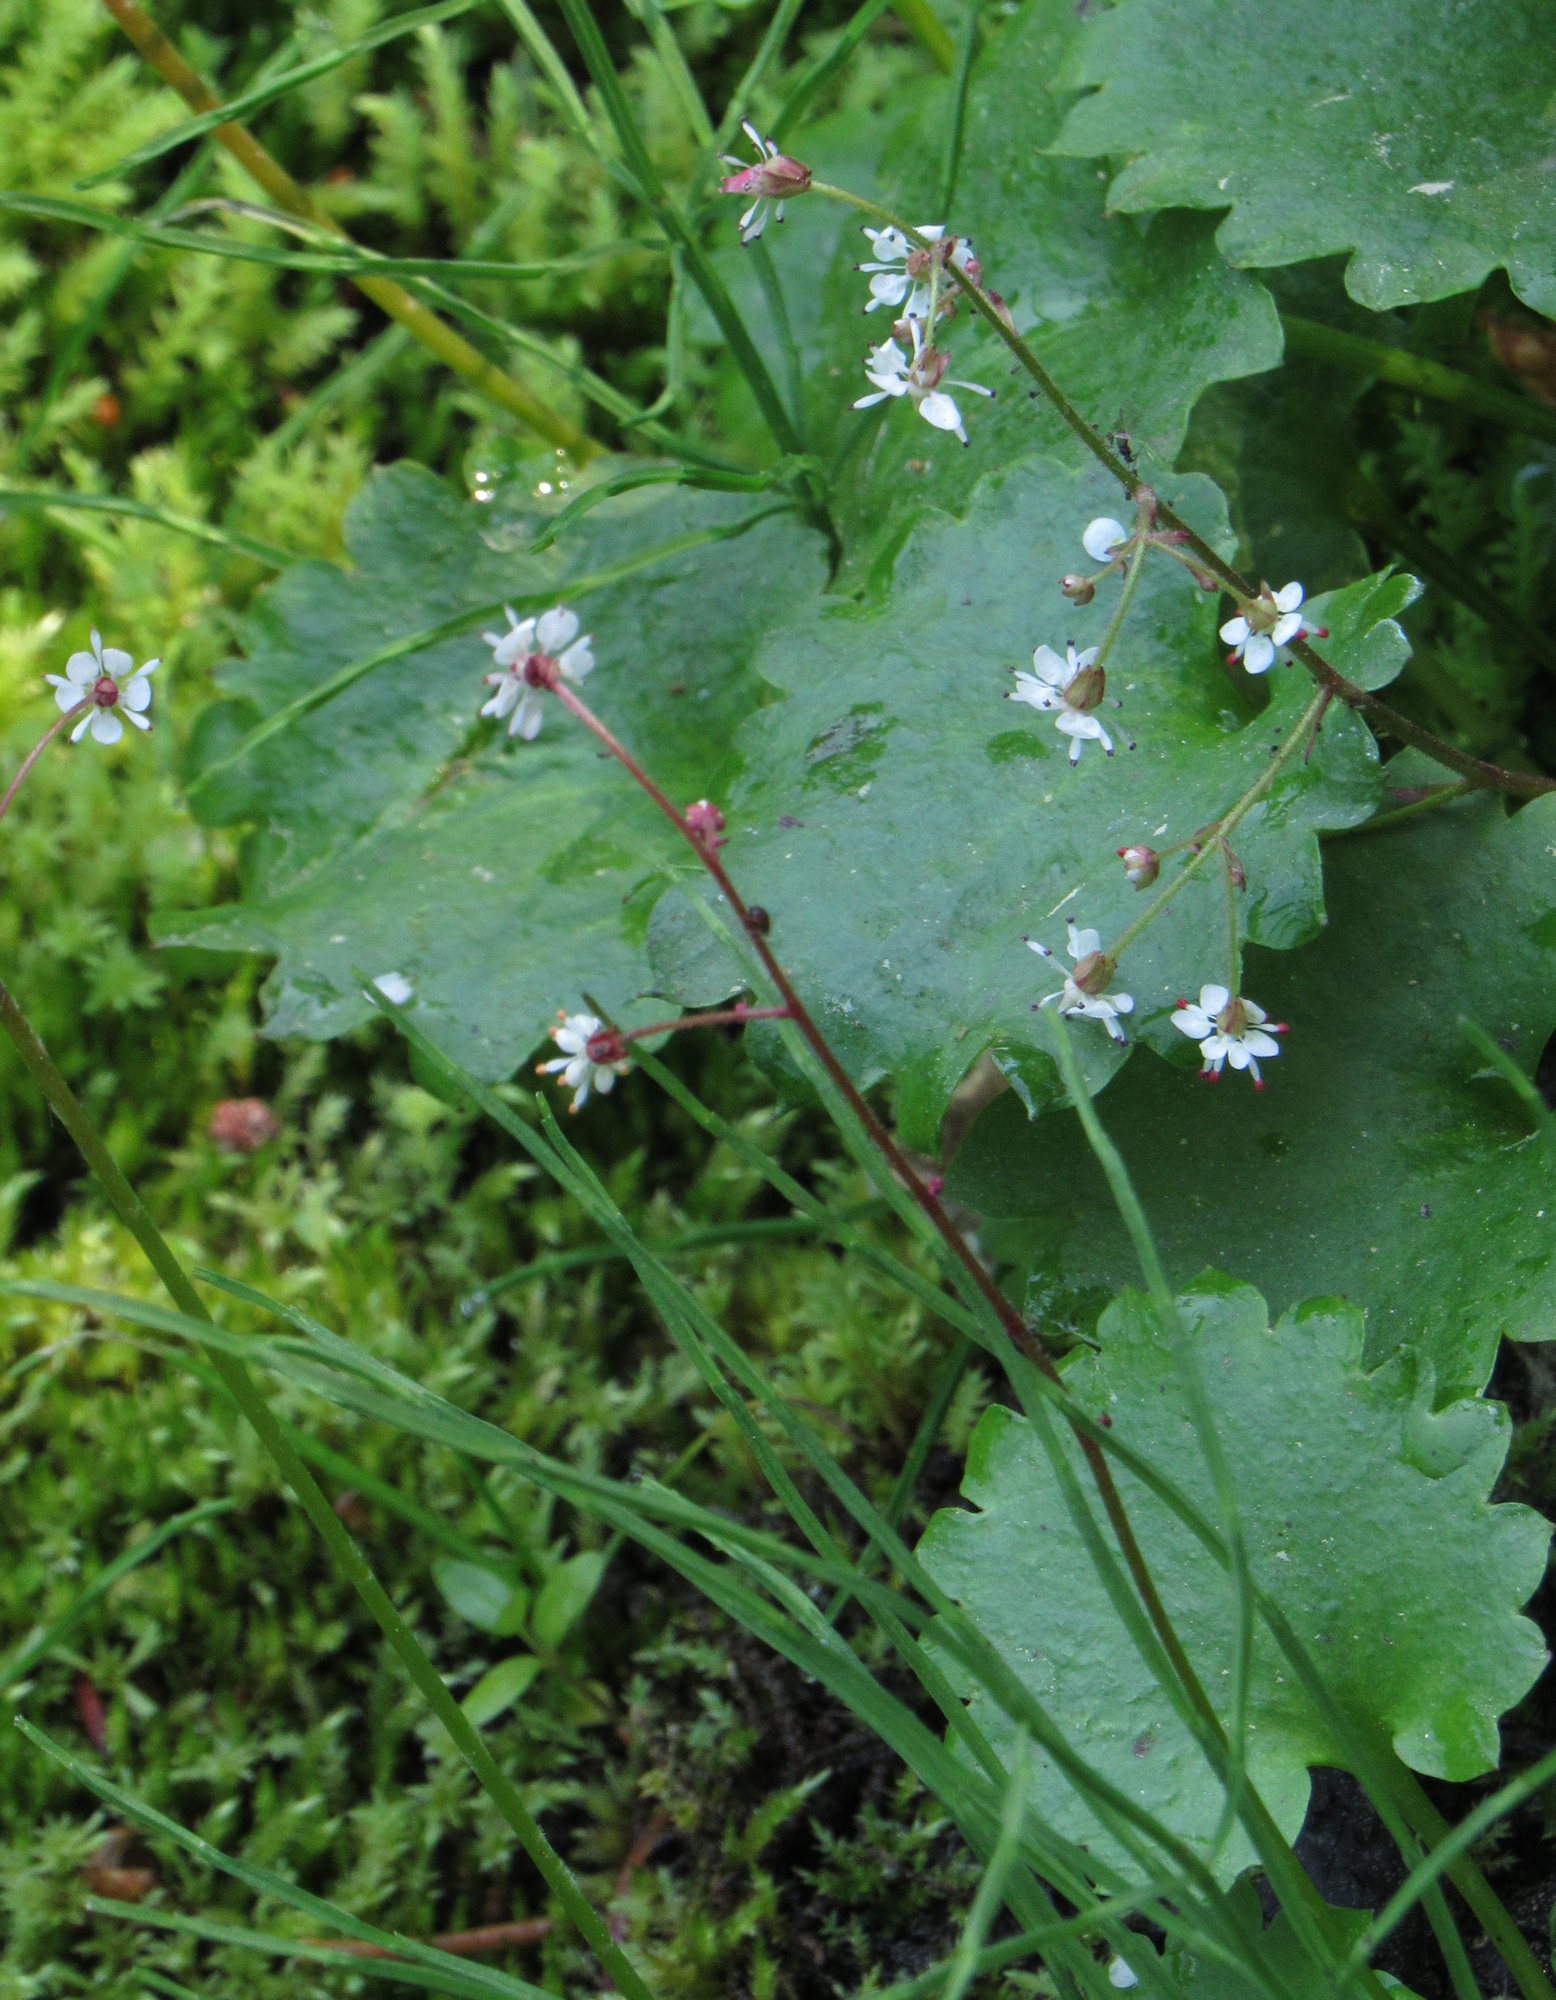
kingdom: Plantae
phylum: Tracheophyta
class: Magnoliopsida
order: Saxifragales
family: Saxifragaceae
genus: Micranthes
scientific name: Micranthes odontoloma
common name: Brook saxifrage
